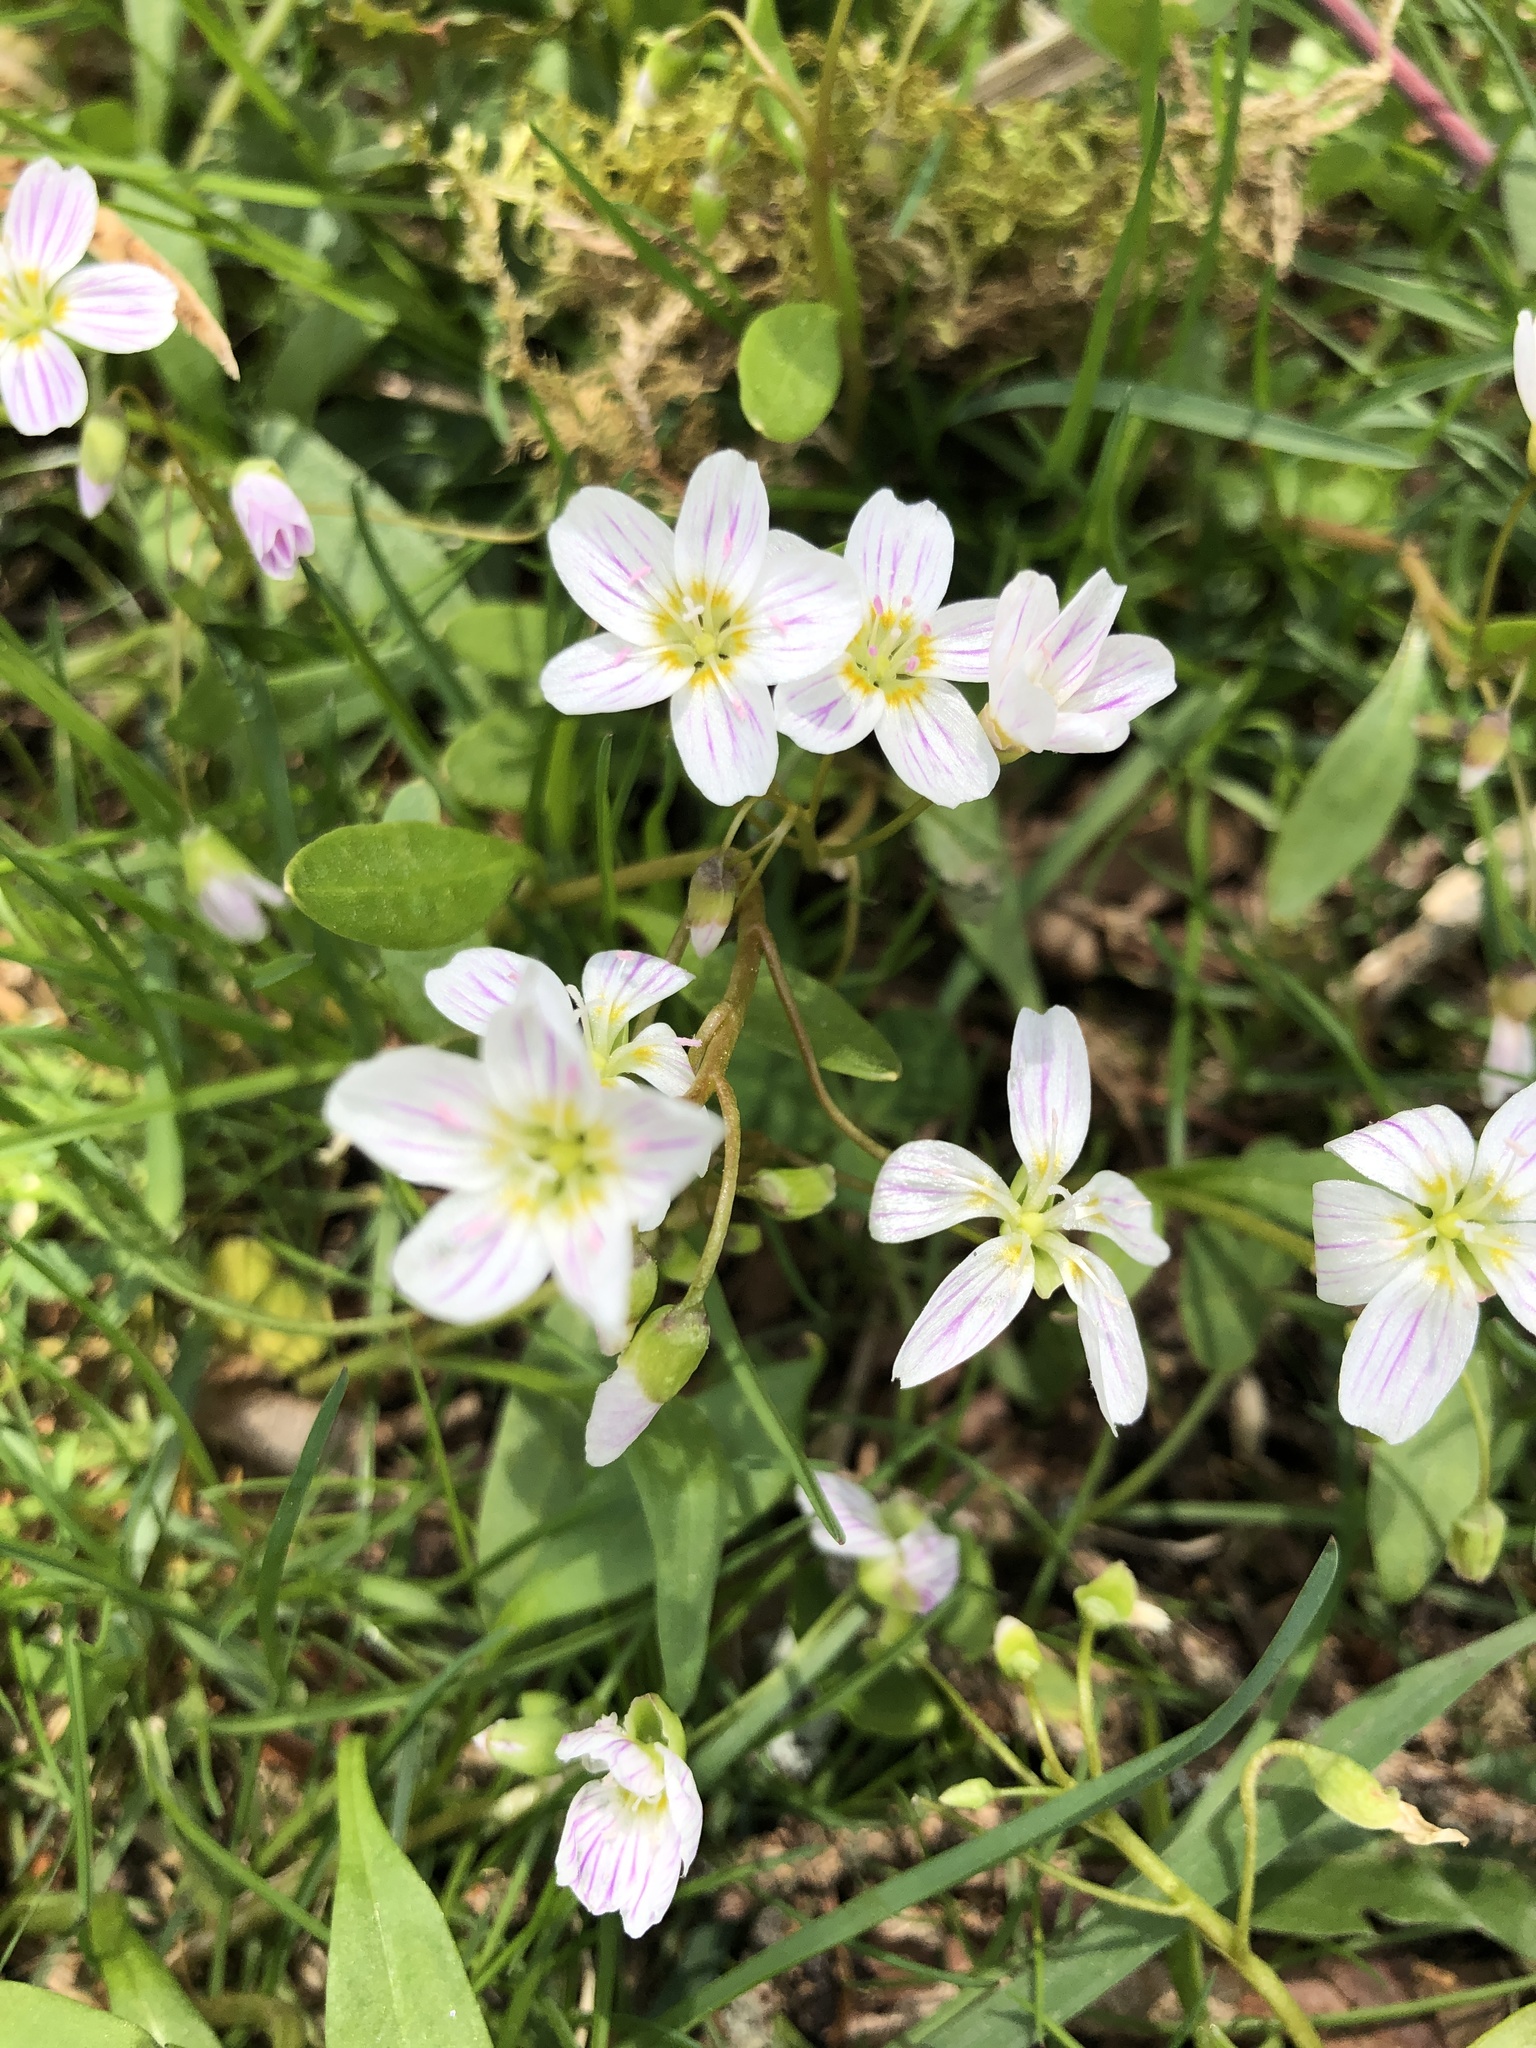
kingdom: Plantae
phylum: Tracheophyta
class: Magnoliopsida
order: Caryophyllales
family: Montiaceae
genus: Claytonia
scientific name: Claytonia virginica
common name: Virginia springbeauty
